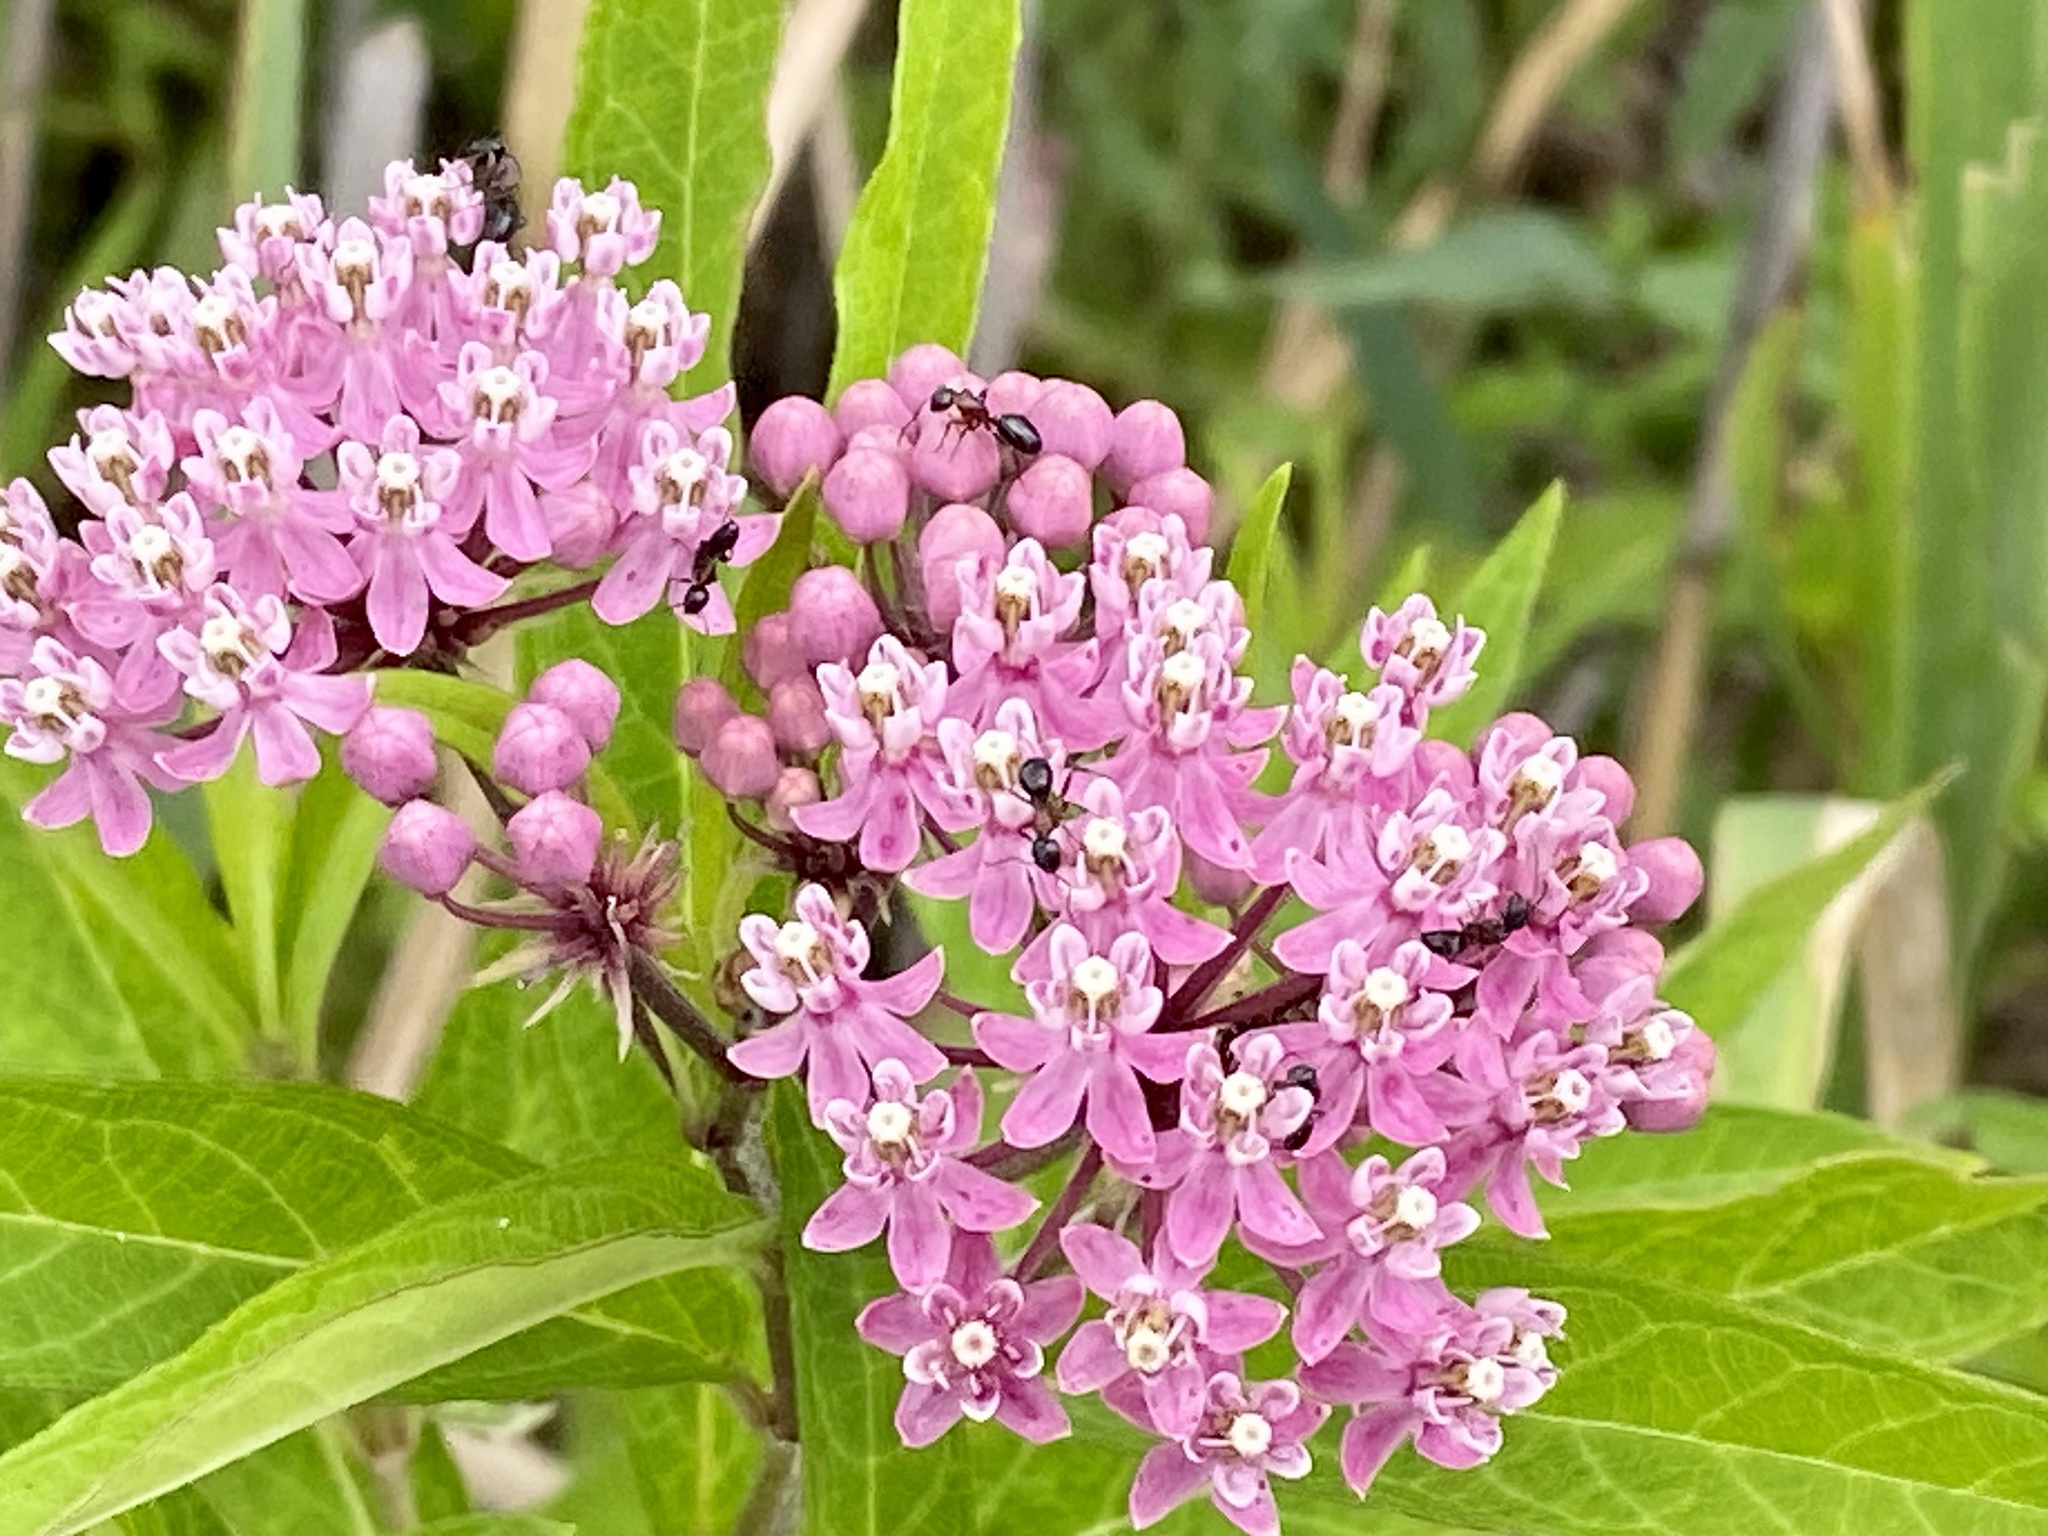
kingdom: Plantae
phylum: Tracheophyta
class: Magnoliopsida
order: Gentianales
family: Apocynaceae
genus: Asclepias
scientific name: Asclepias incarnata
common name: Swamp milkweed
